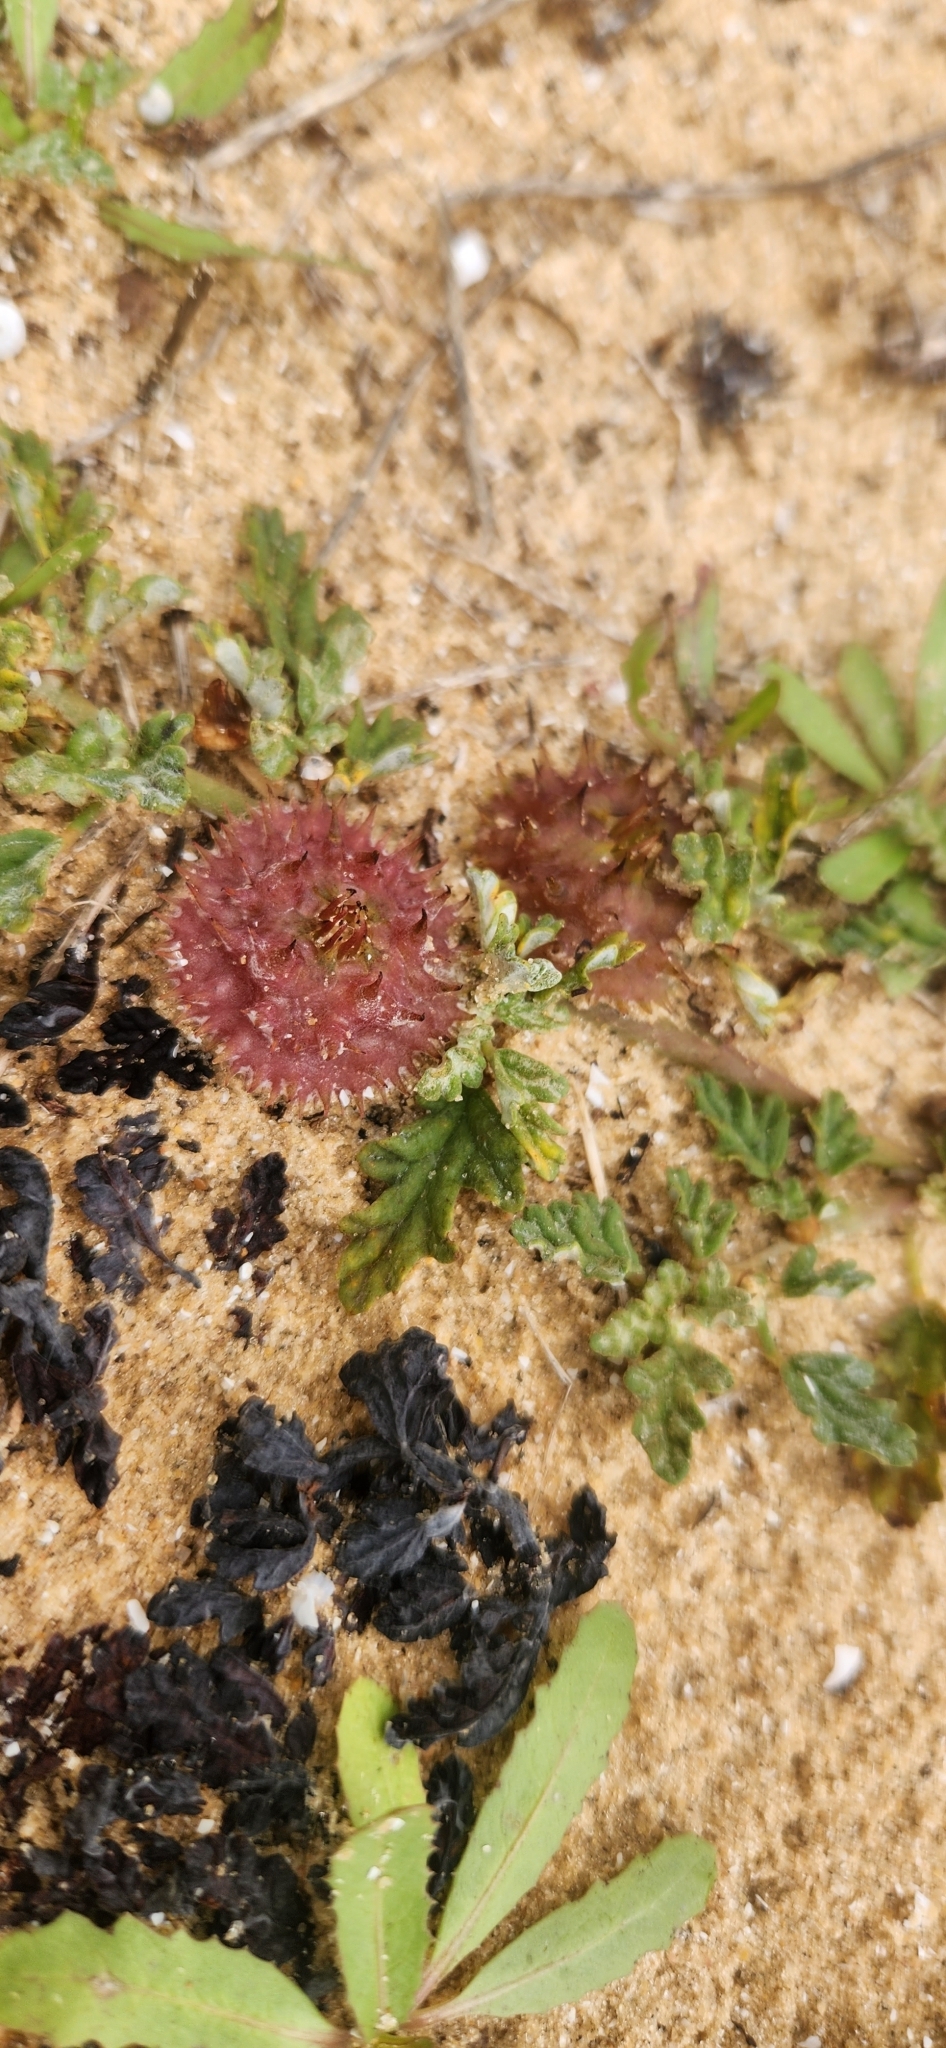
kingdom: Plantae
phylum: Tracheophyta
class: Magnoliopsida
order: Malvales
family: Neuradaceae
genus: Neurada
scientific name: Neurada procumbens
